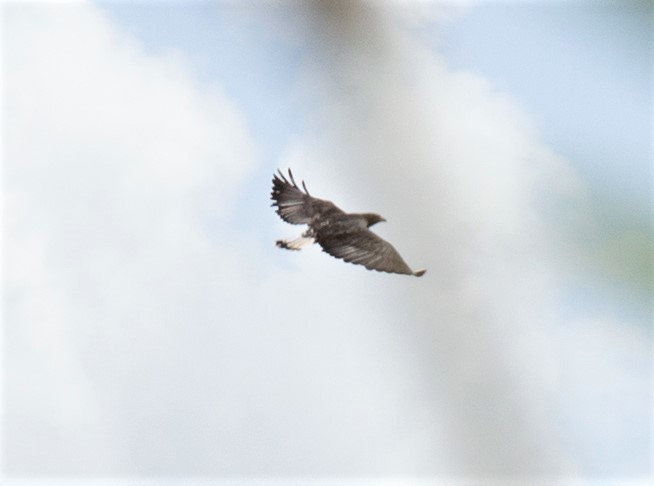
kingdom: Animalia
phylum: Chordata
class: Aves
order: Accipitriformes
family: Accipitridae
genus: Buteo
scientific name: Buteo albicaudatus
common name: White-tailed hawk
